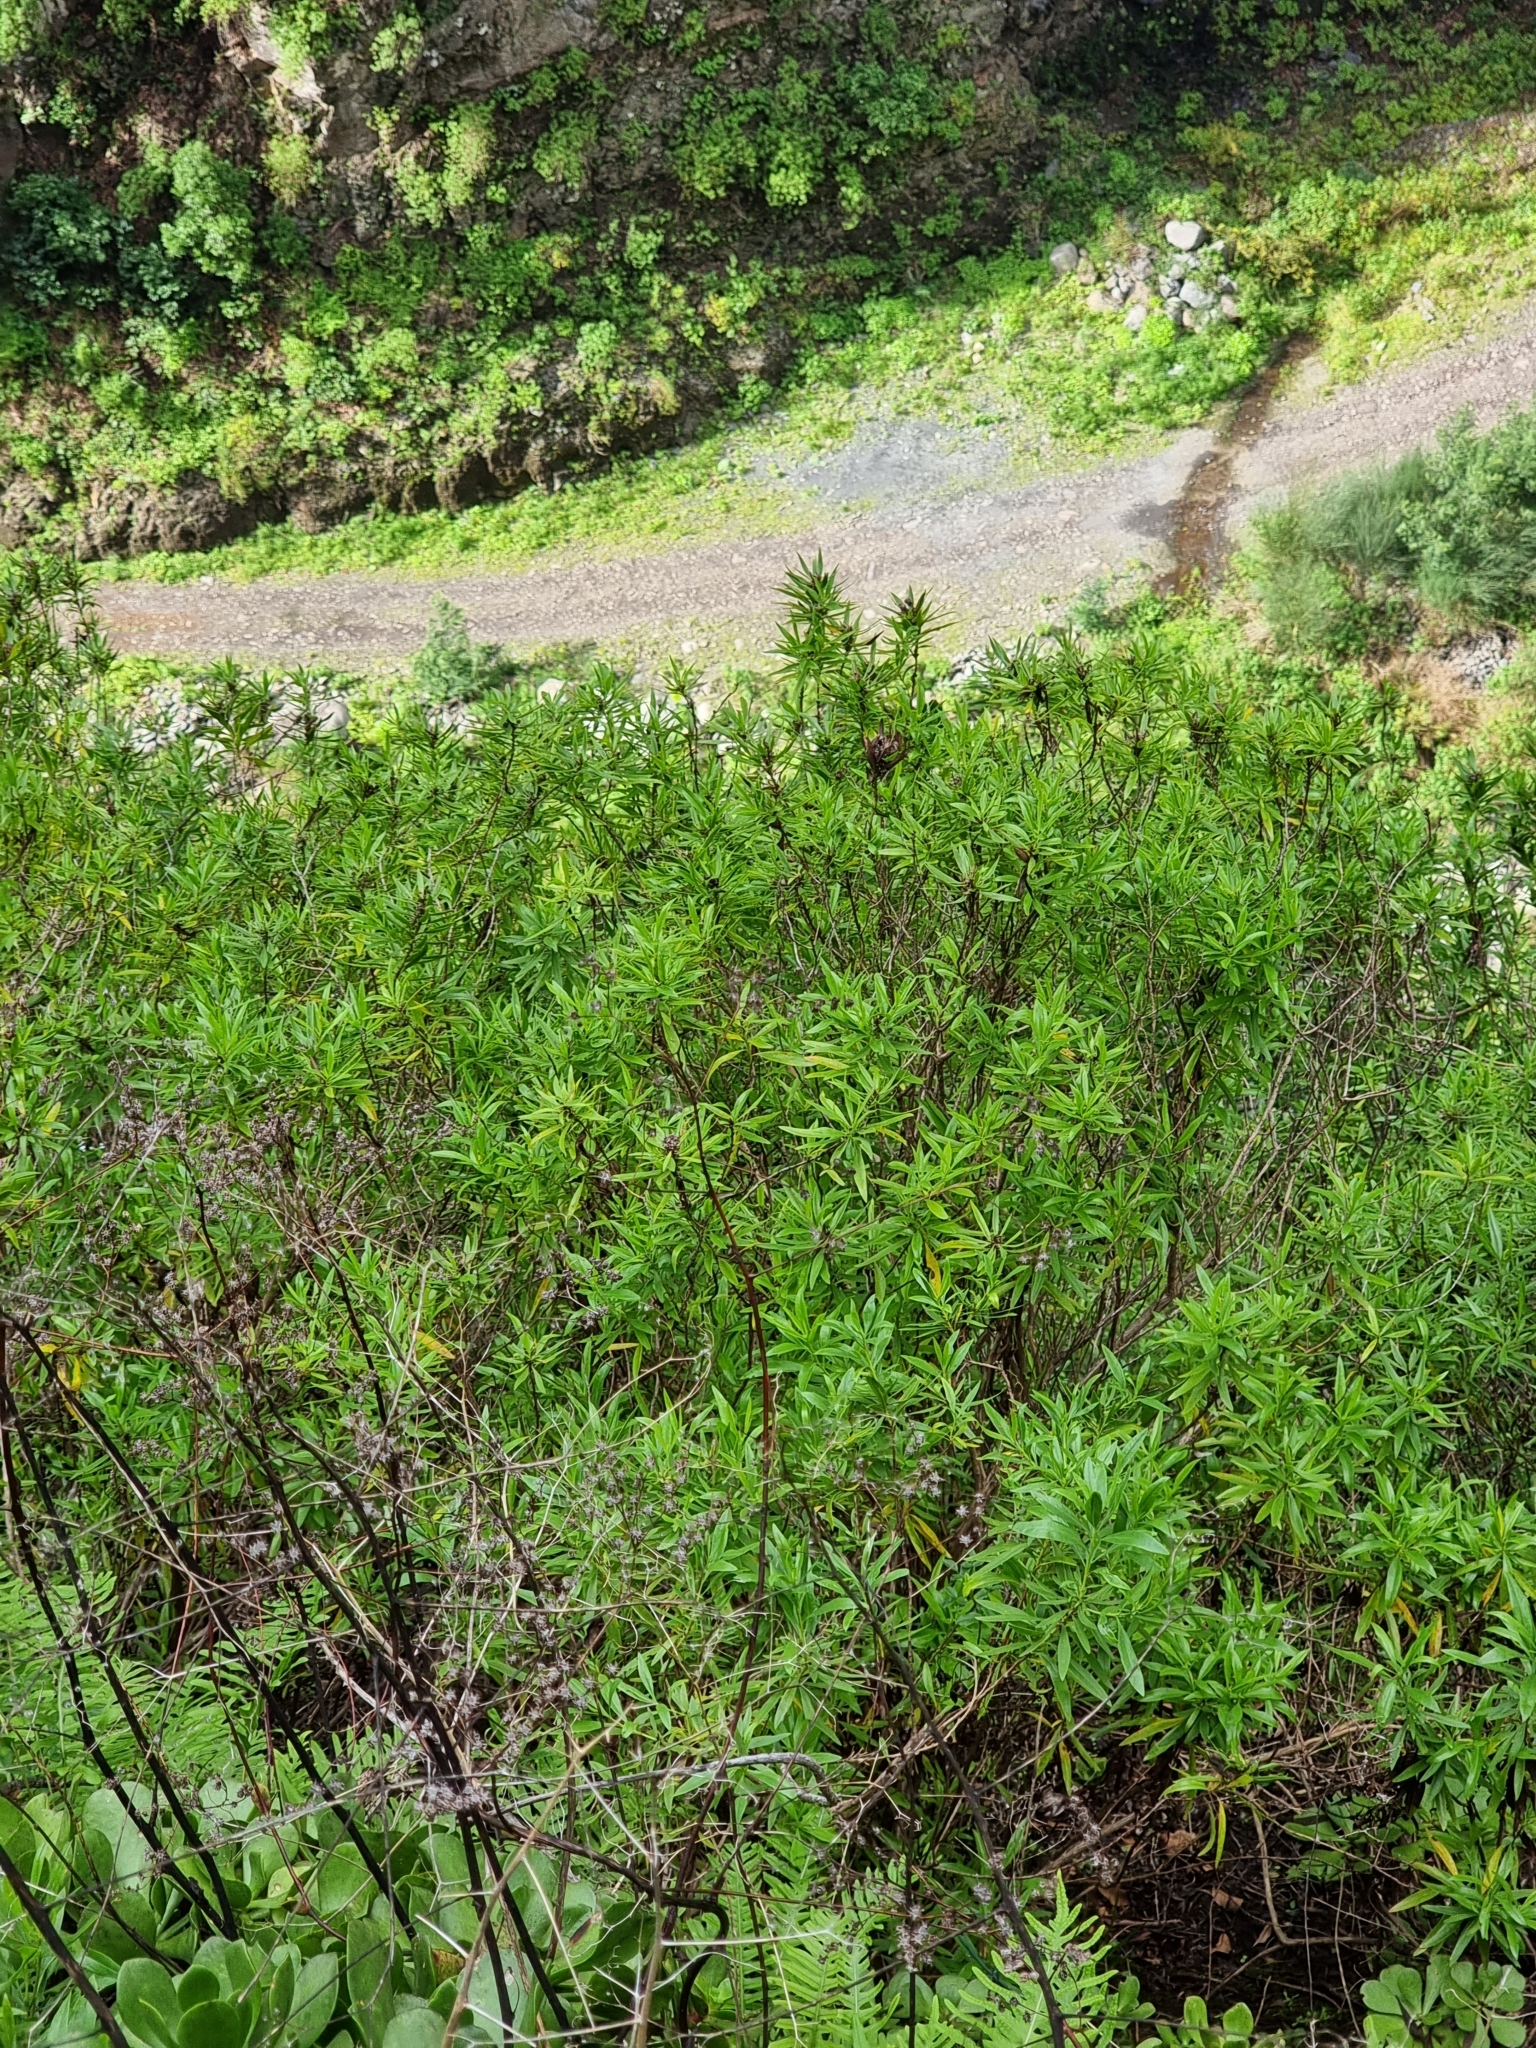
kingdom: Plantae
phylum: Tracheophyta
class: Magnoliopsida
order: Lamiales
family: Plantaginaceae
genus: Globularia
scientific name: Globularia salicina
